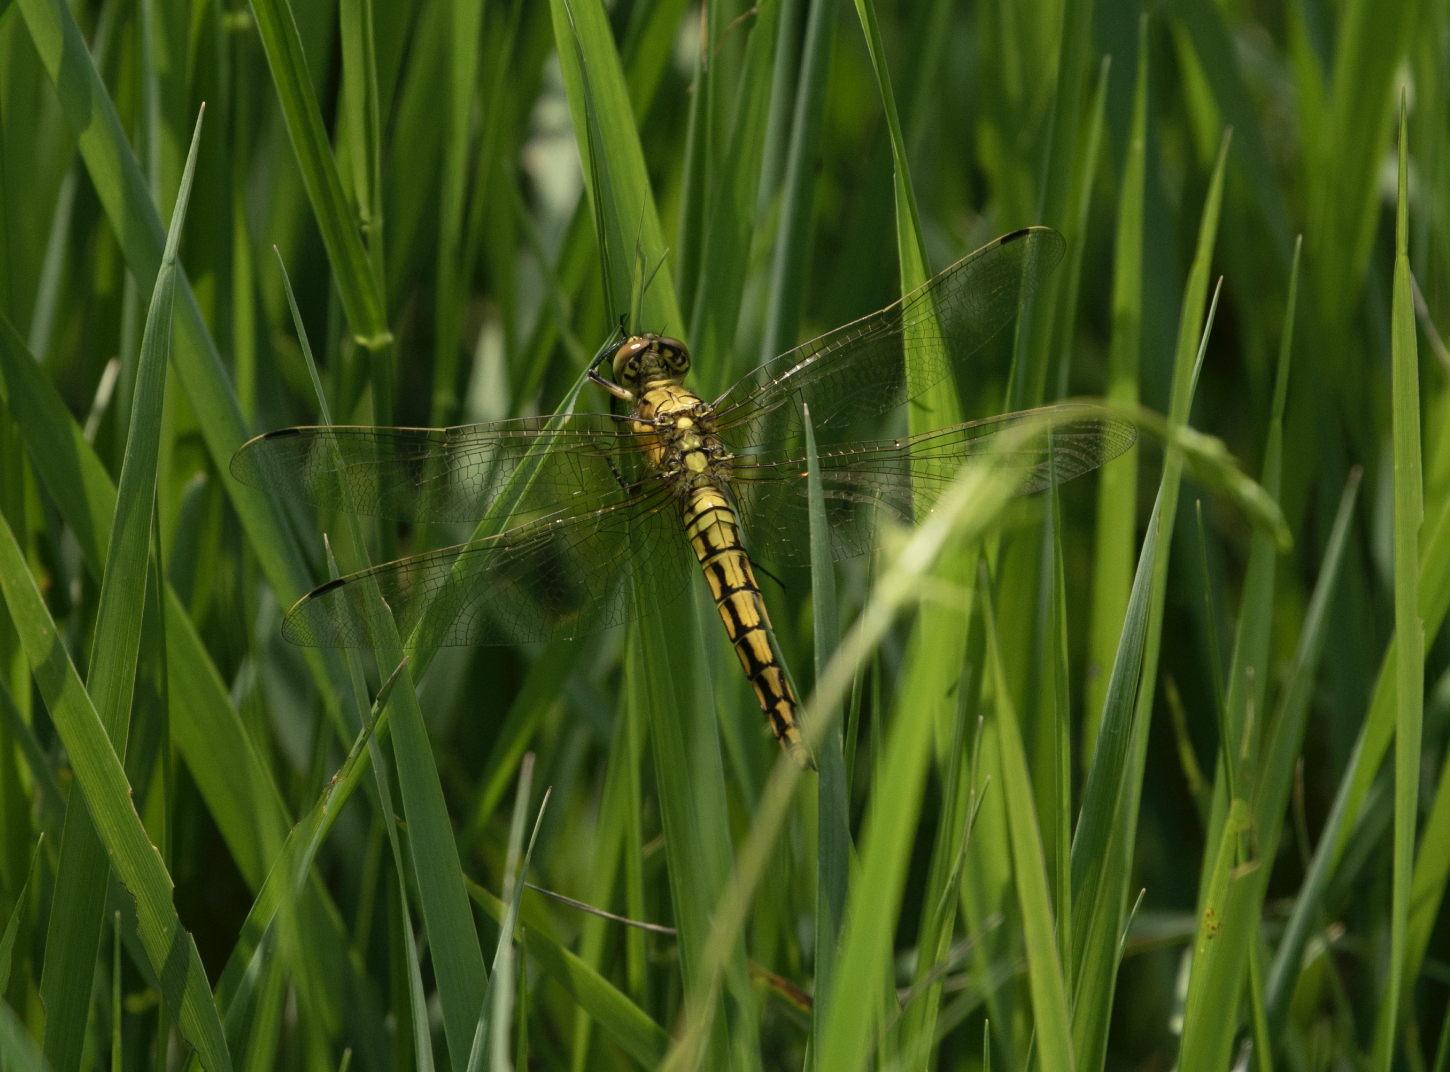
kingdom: Animalia
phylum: Arthropoda
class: Insecta
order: Odonata
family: Libellulidae
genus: Orthetrum
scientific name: Orthetrum cancellatum
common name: Black-tailed skimmer
